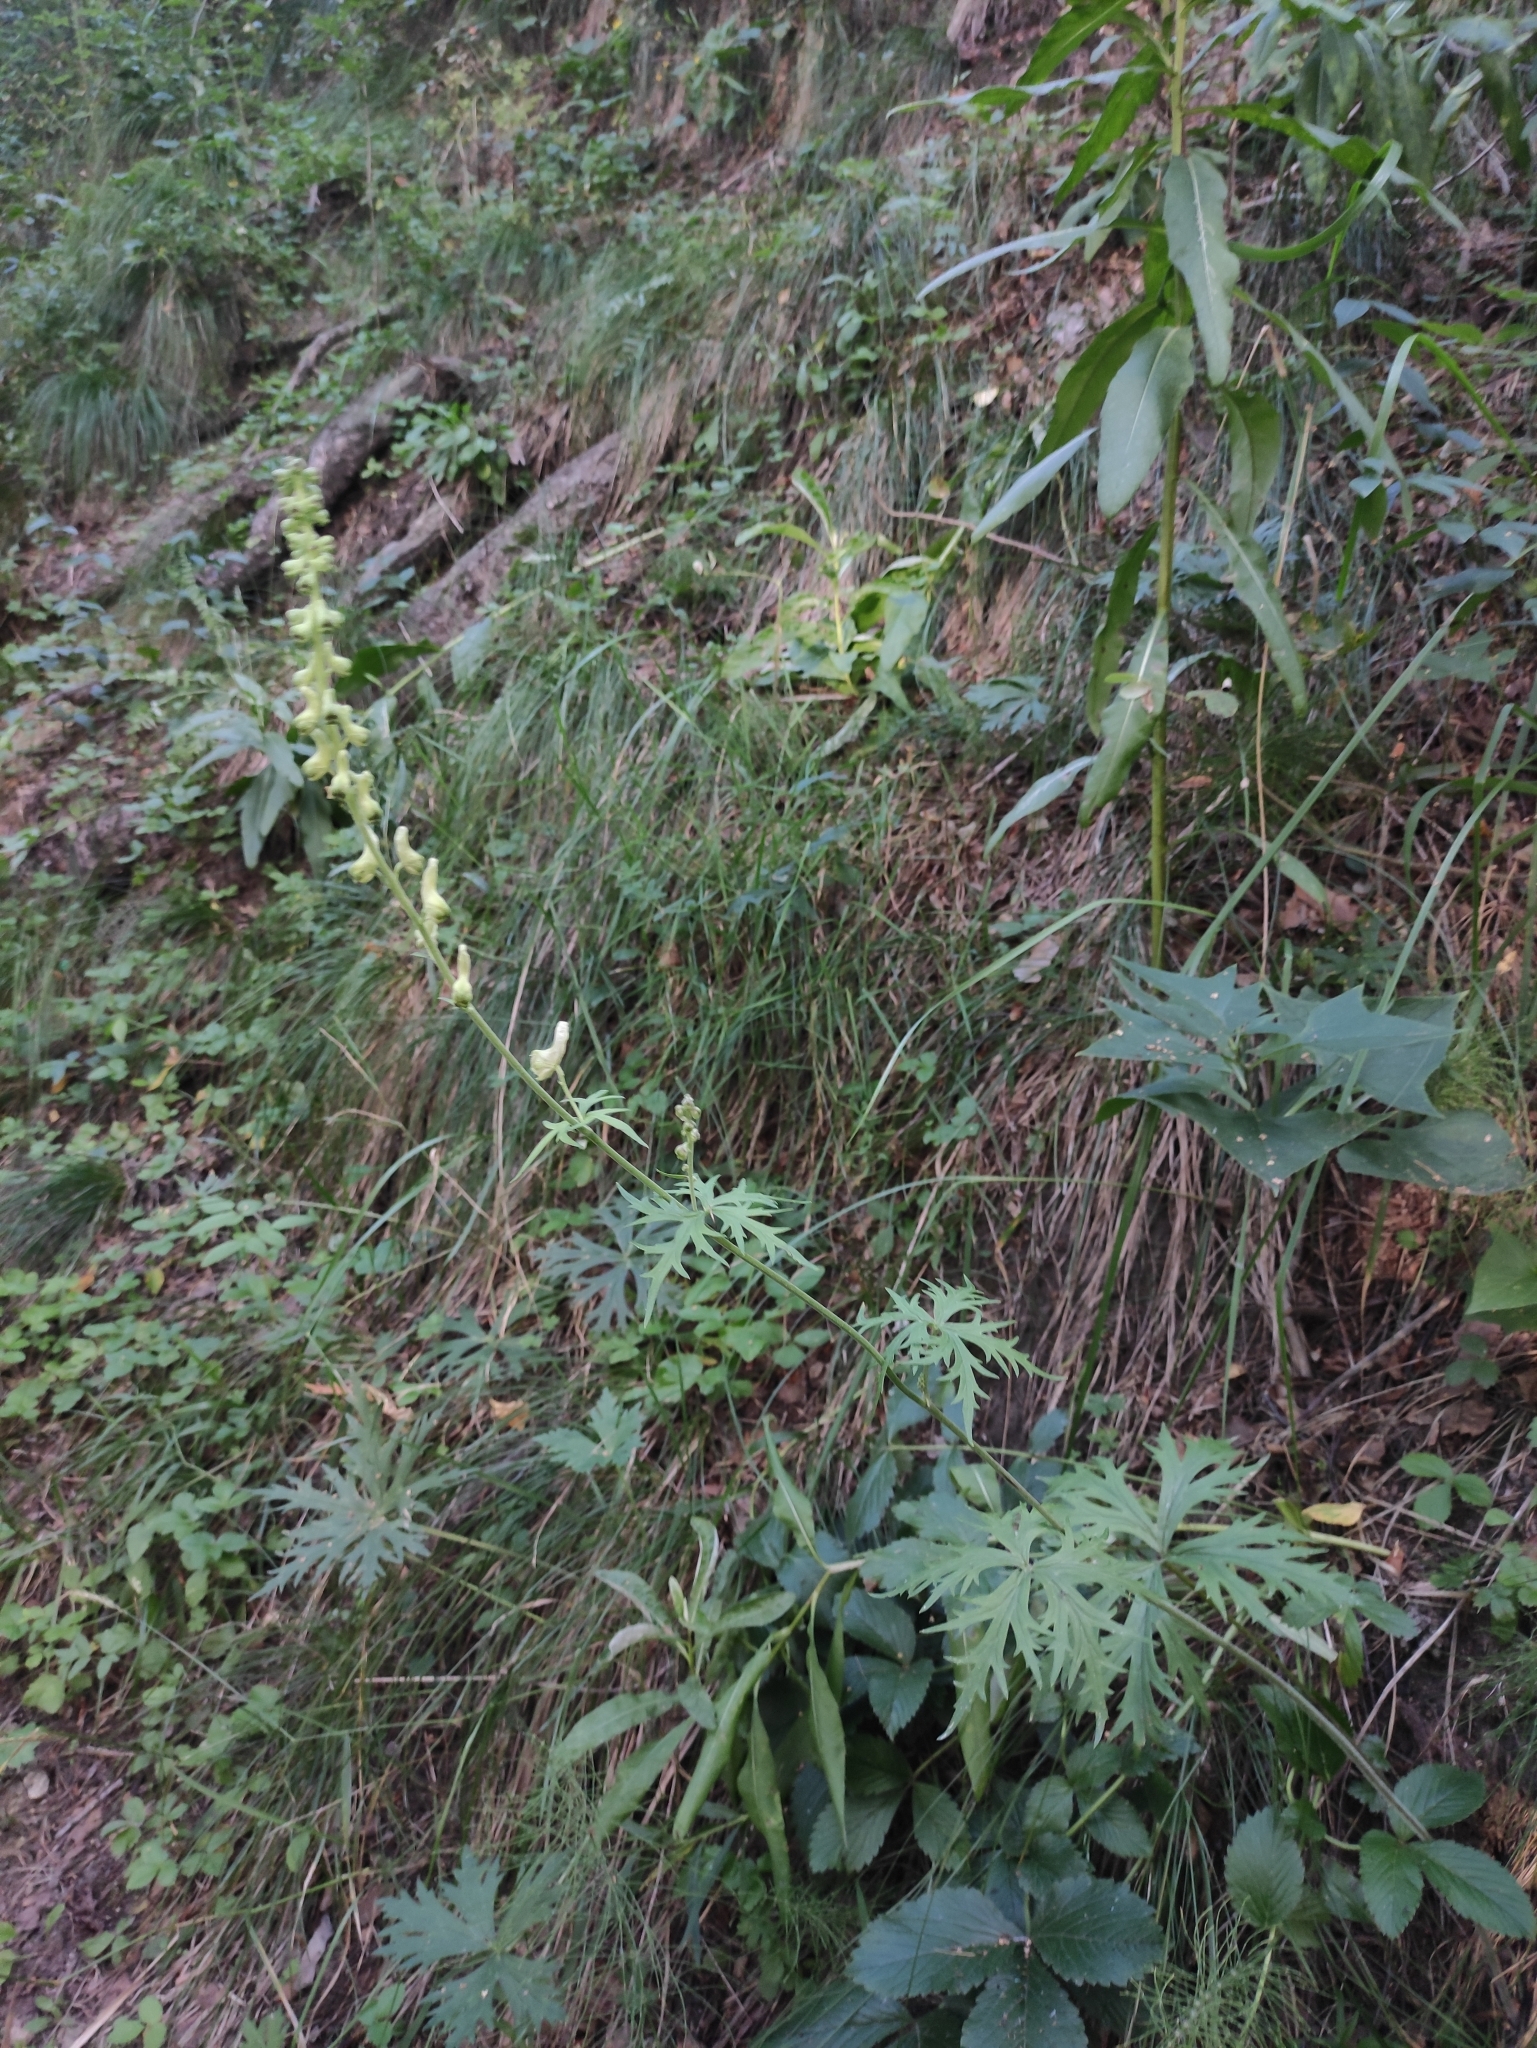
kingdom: Plantae
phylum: Tracheophyta
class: Magnoliopsida
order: Ranunculales
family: Ranunculaceae
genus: Aconitum
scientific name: Aconitum barbatum
